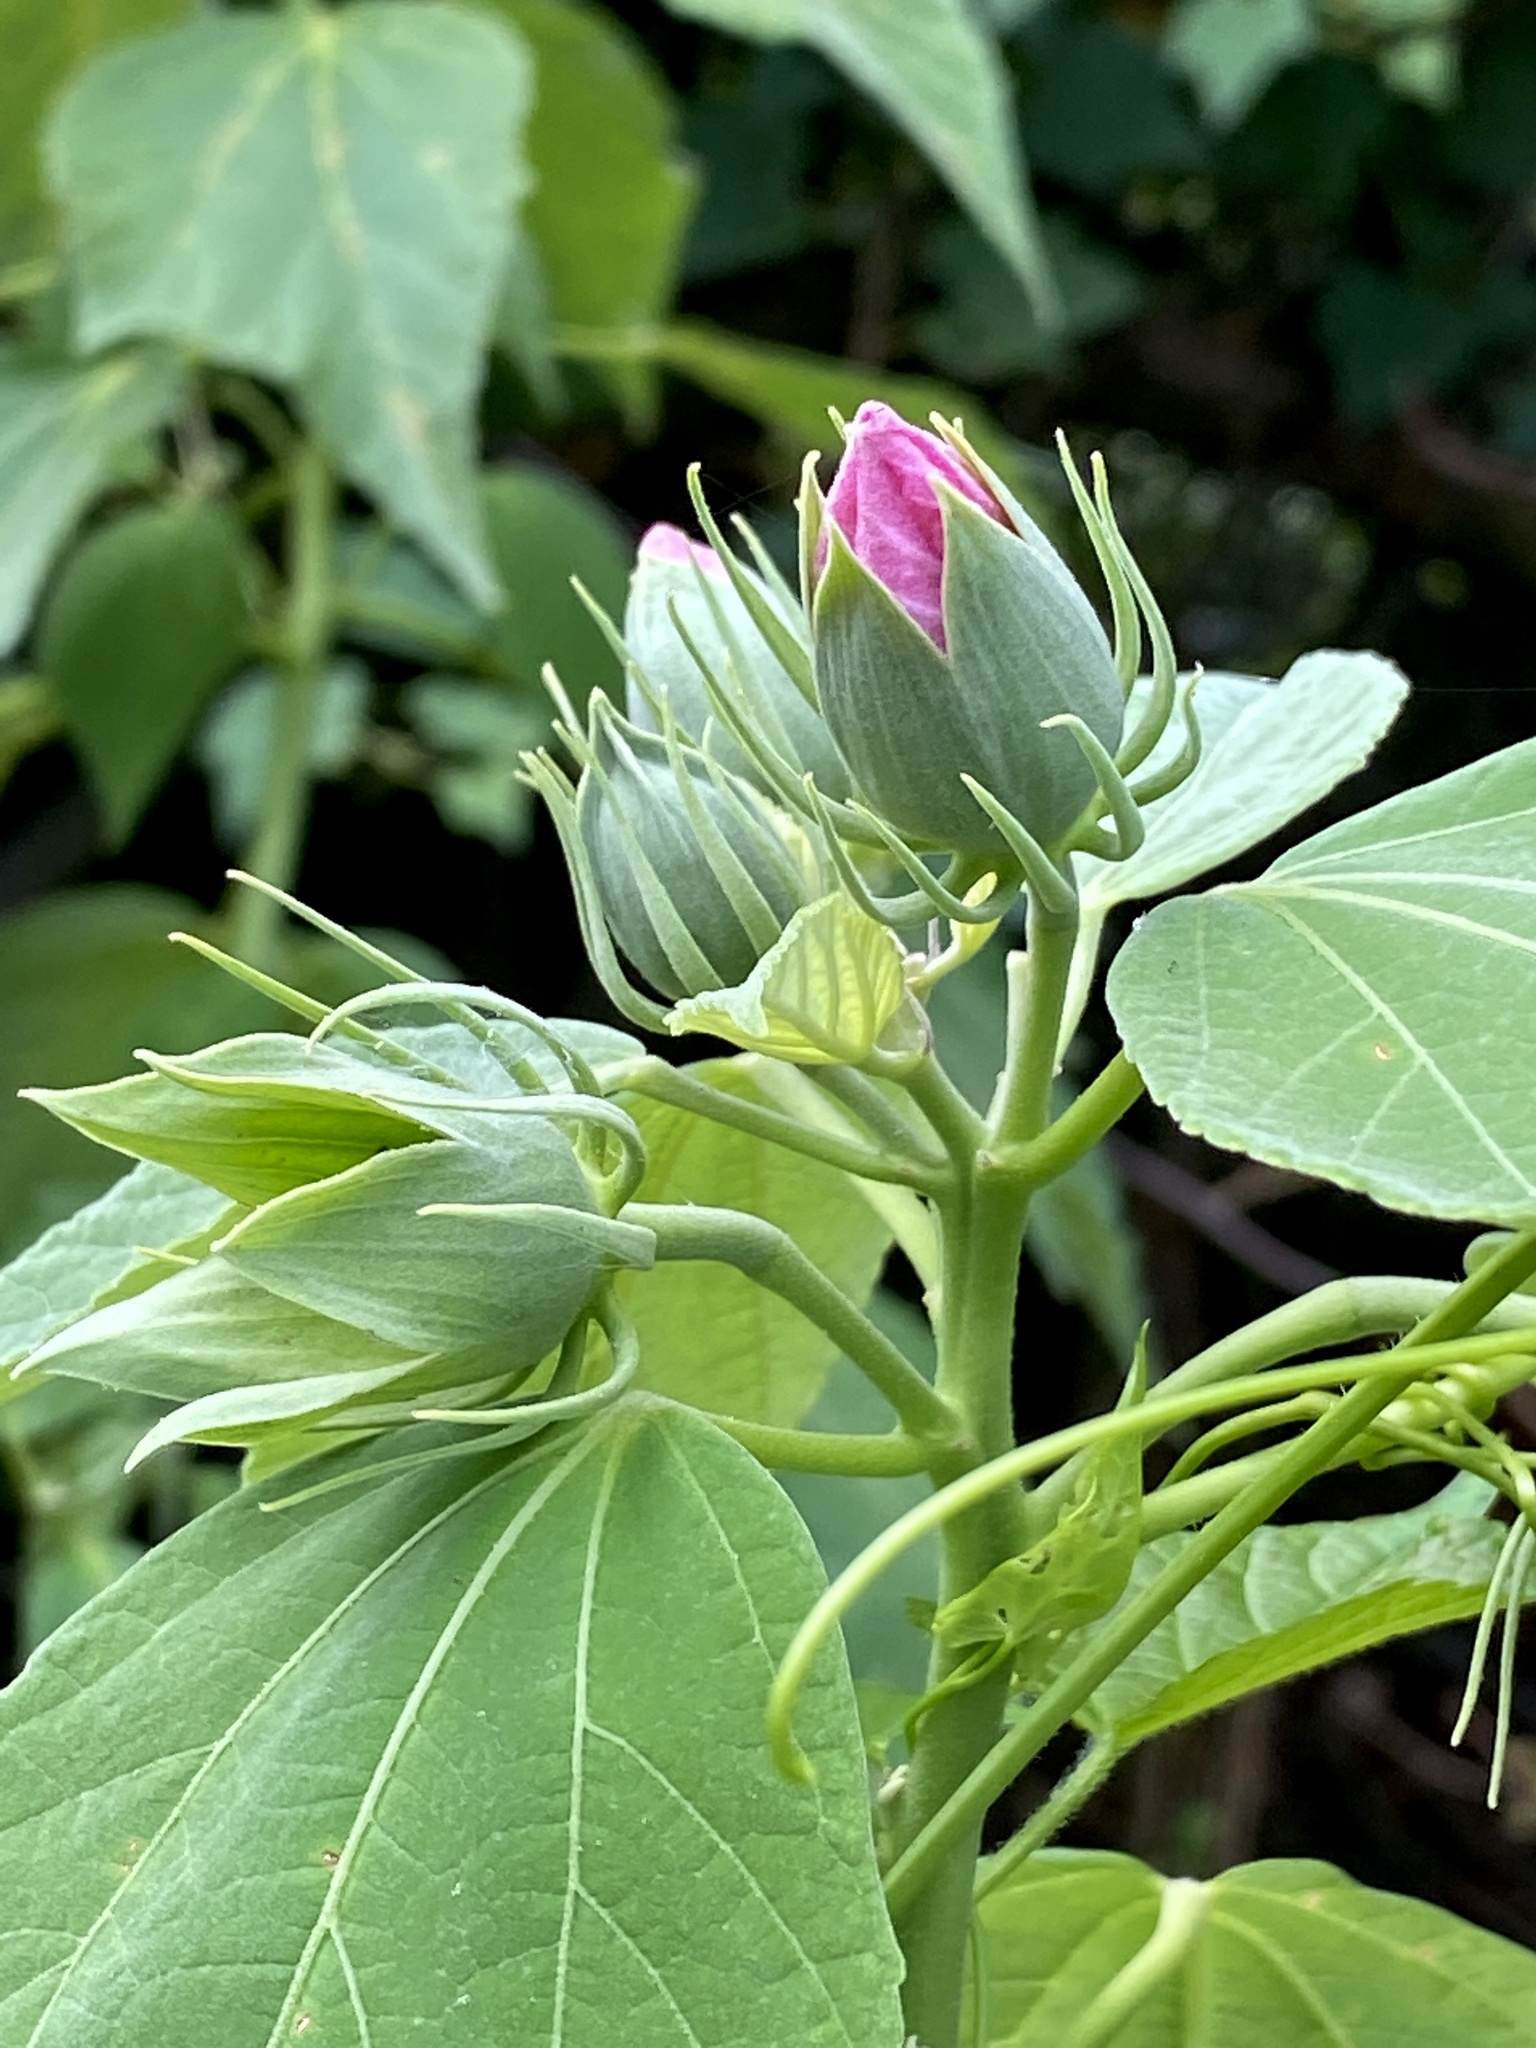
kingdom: Plantae
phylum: Tracheophyta
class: Magnoliopsida
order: Malvales
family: Malvaceae
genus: Hibiscus
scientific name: Hibiscus moscheutos
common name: Common rose-mallow
